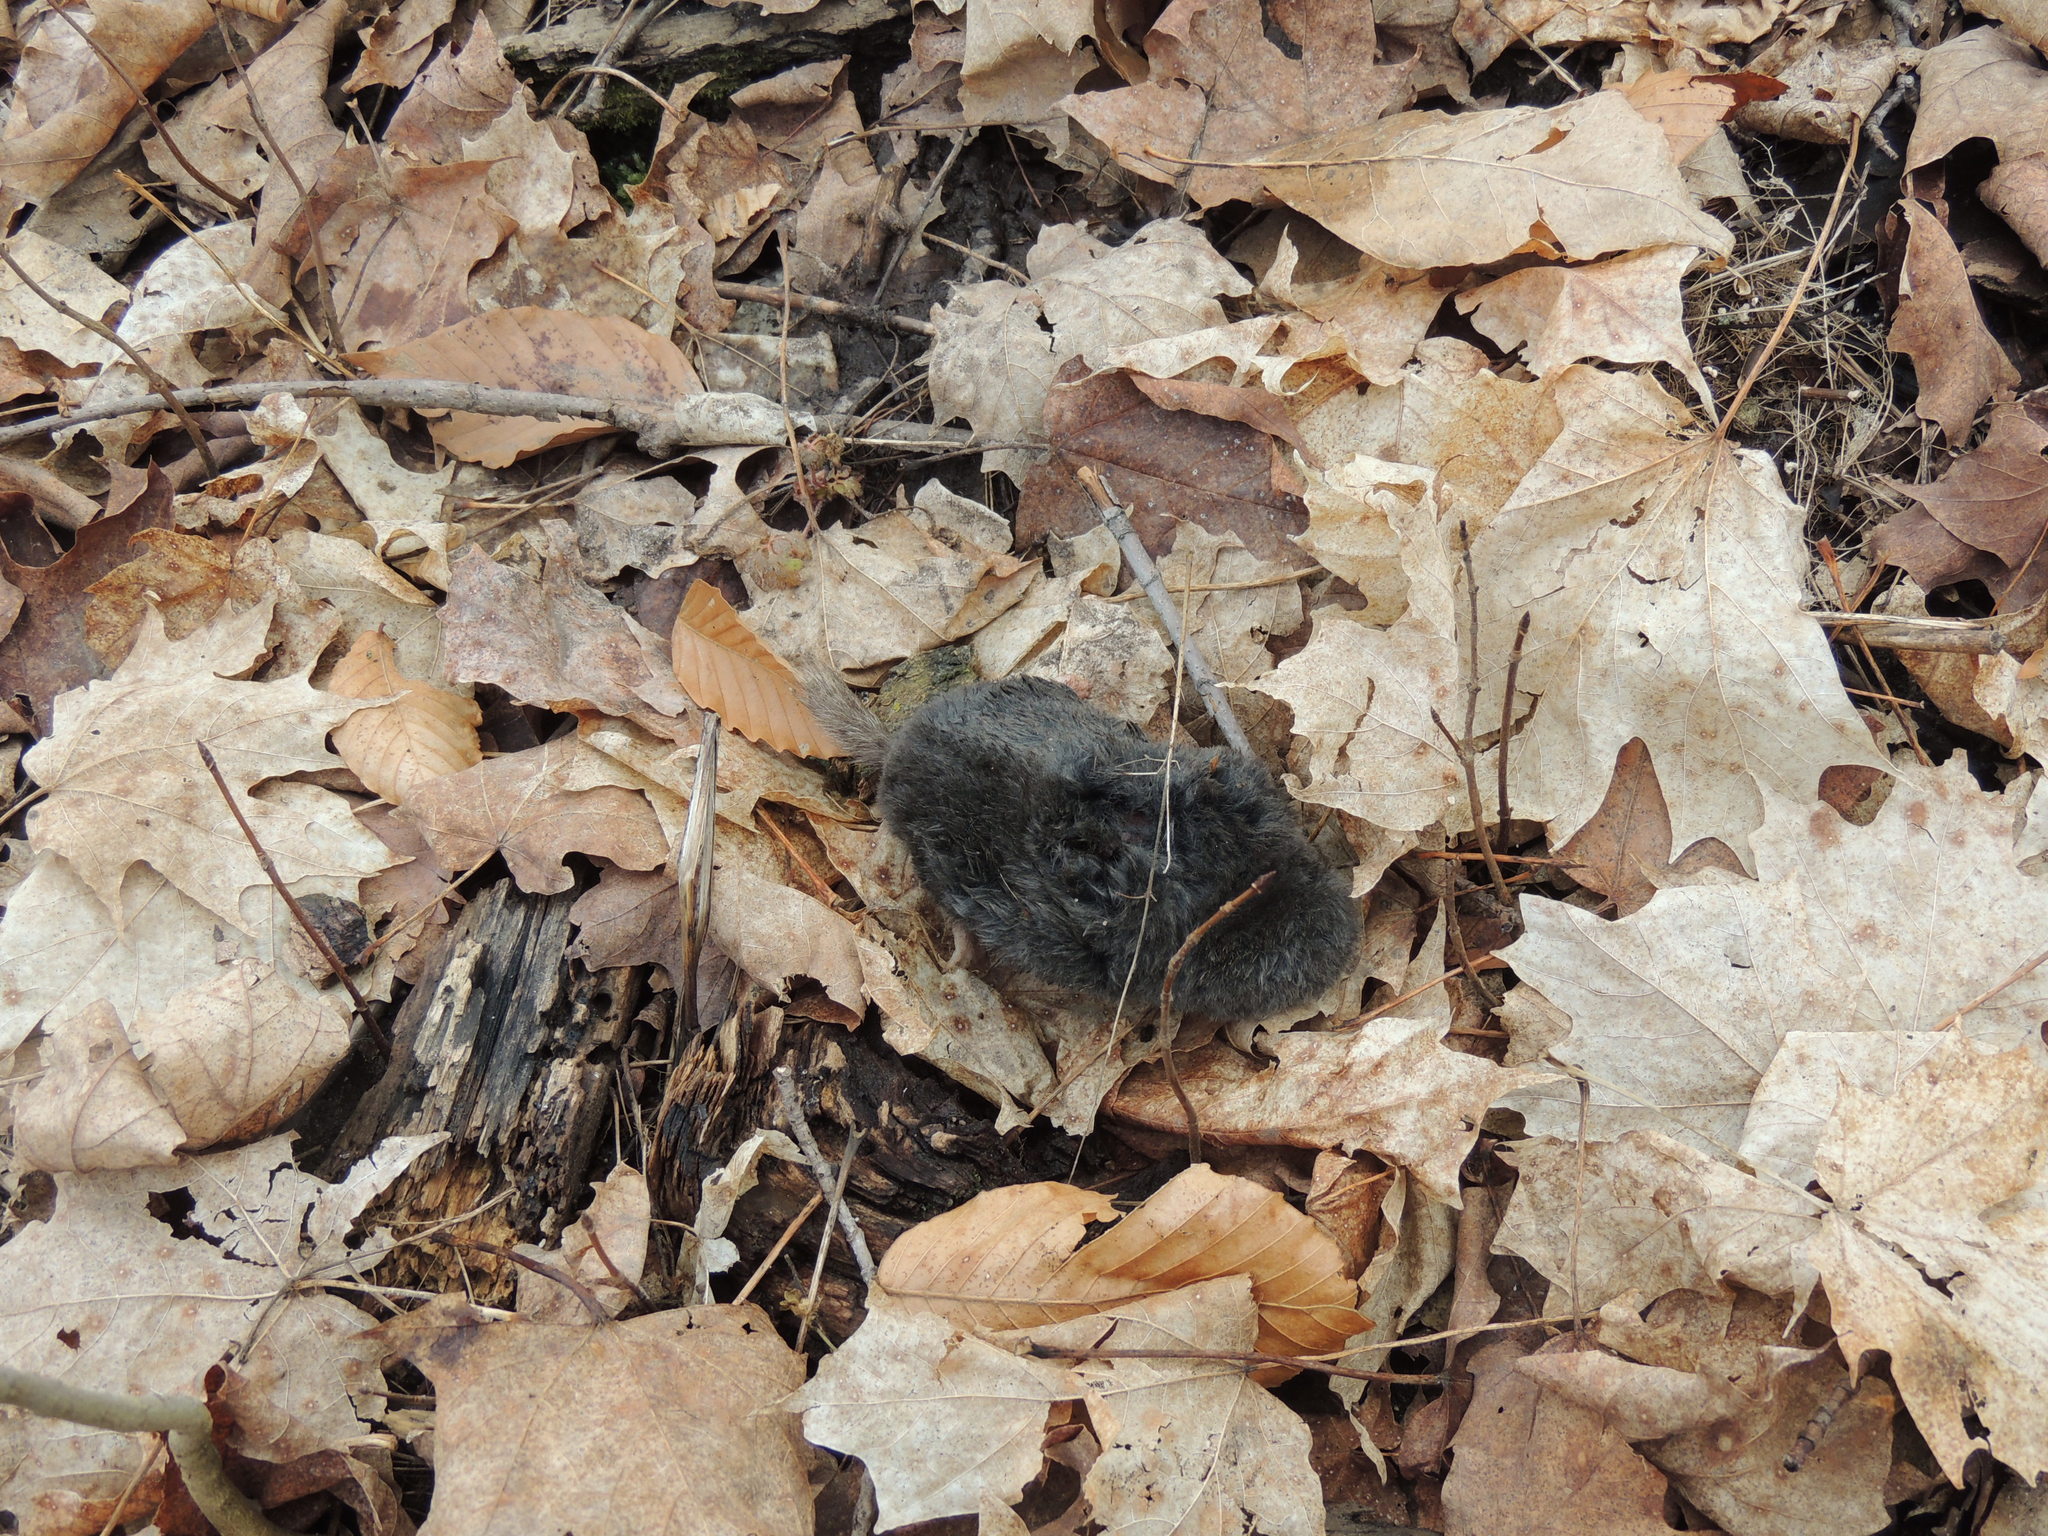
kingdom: Animalia
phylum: Chordata
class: Mammalia
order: Soricomorpha
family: Talpidae
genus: Parascalops
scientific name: Parascalops breweri
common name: Hairy-tailed mole
